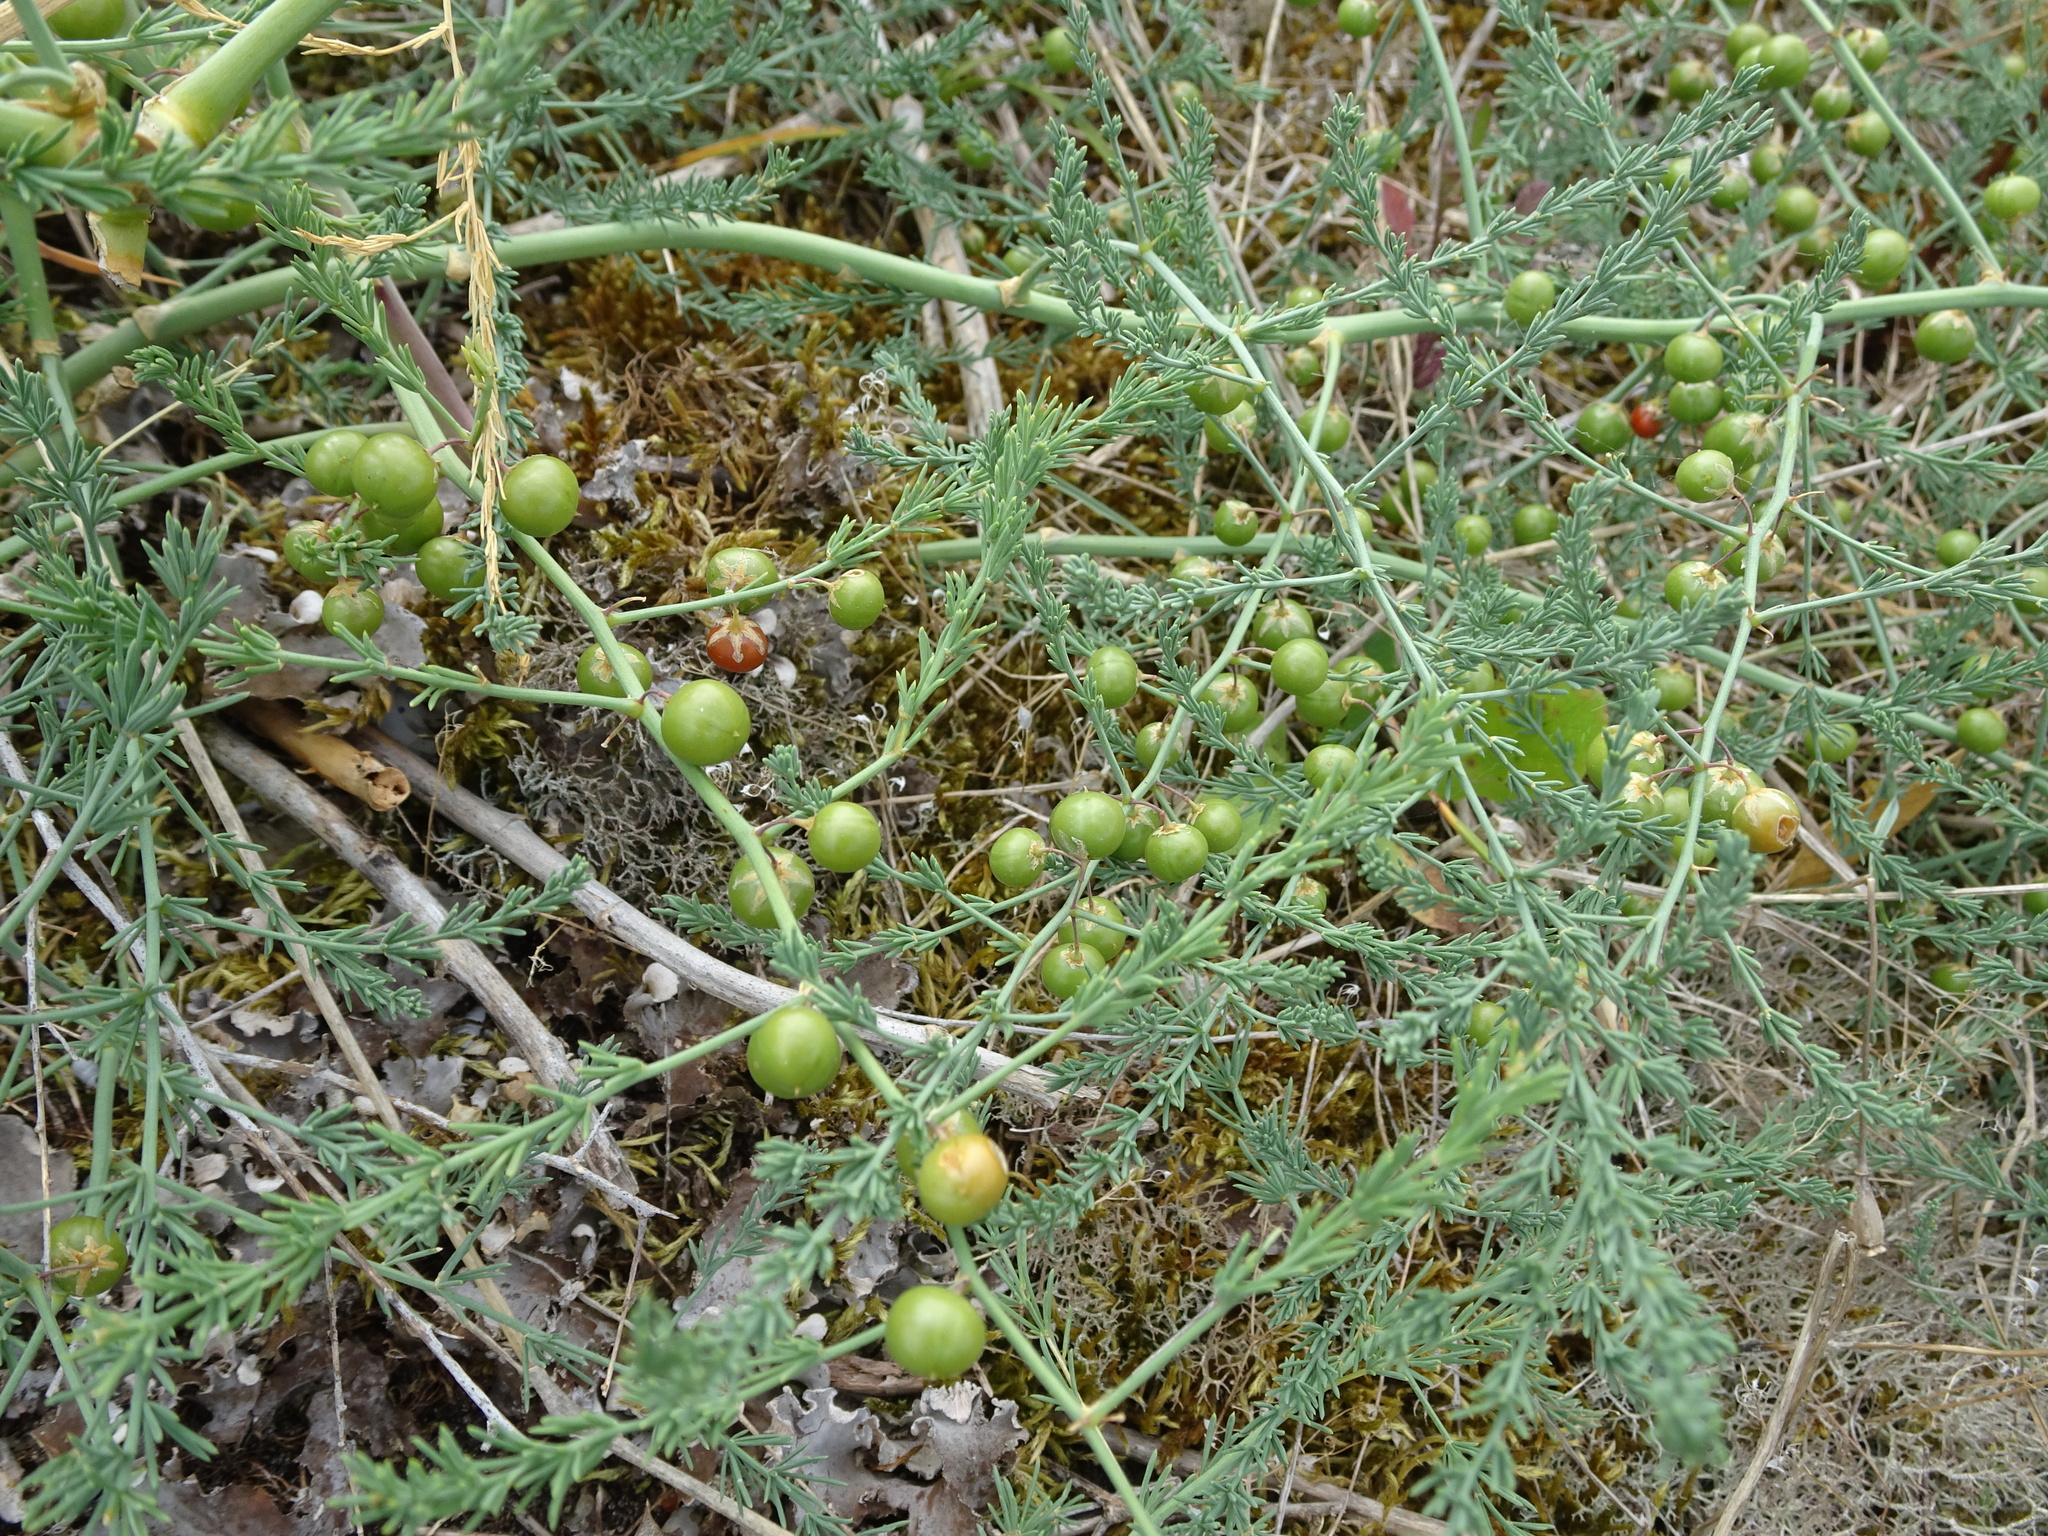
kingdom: Plantae
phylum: Tracheophyta
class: Liliopsida
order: Asparagales
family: Asparagaceae
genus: Asparagus
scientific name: Asparagus prostratus
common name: Wild asparagus
